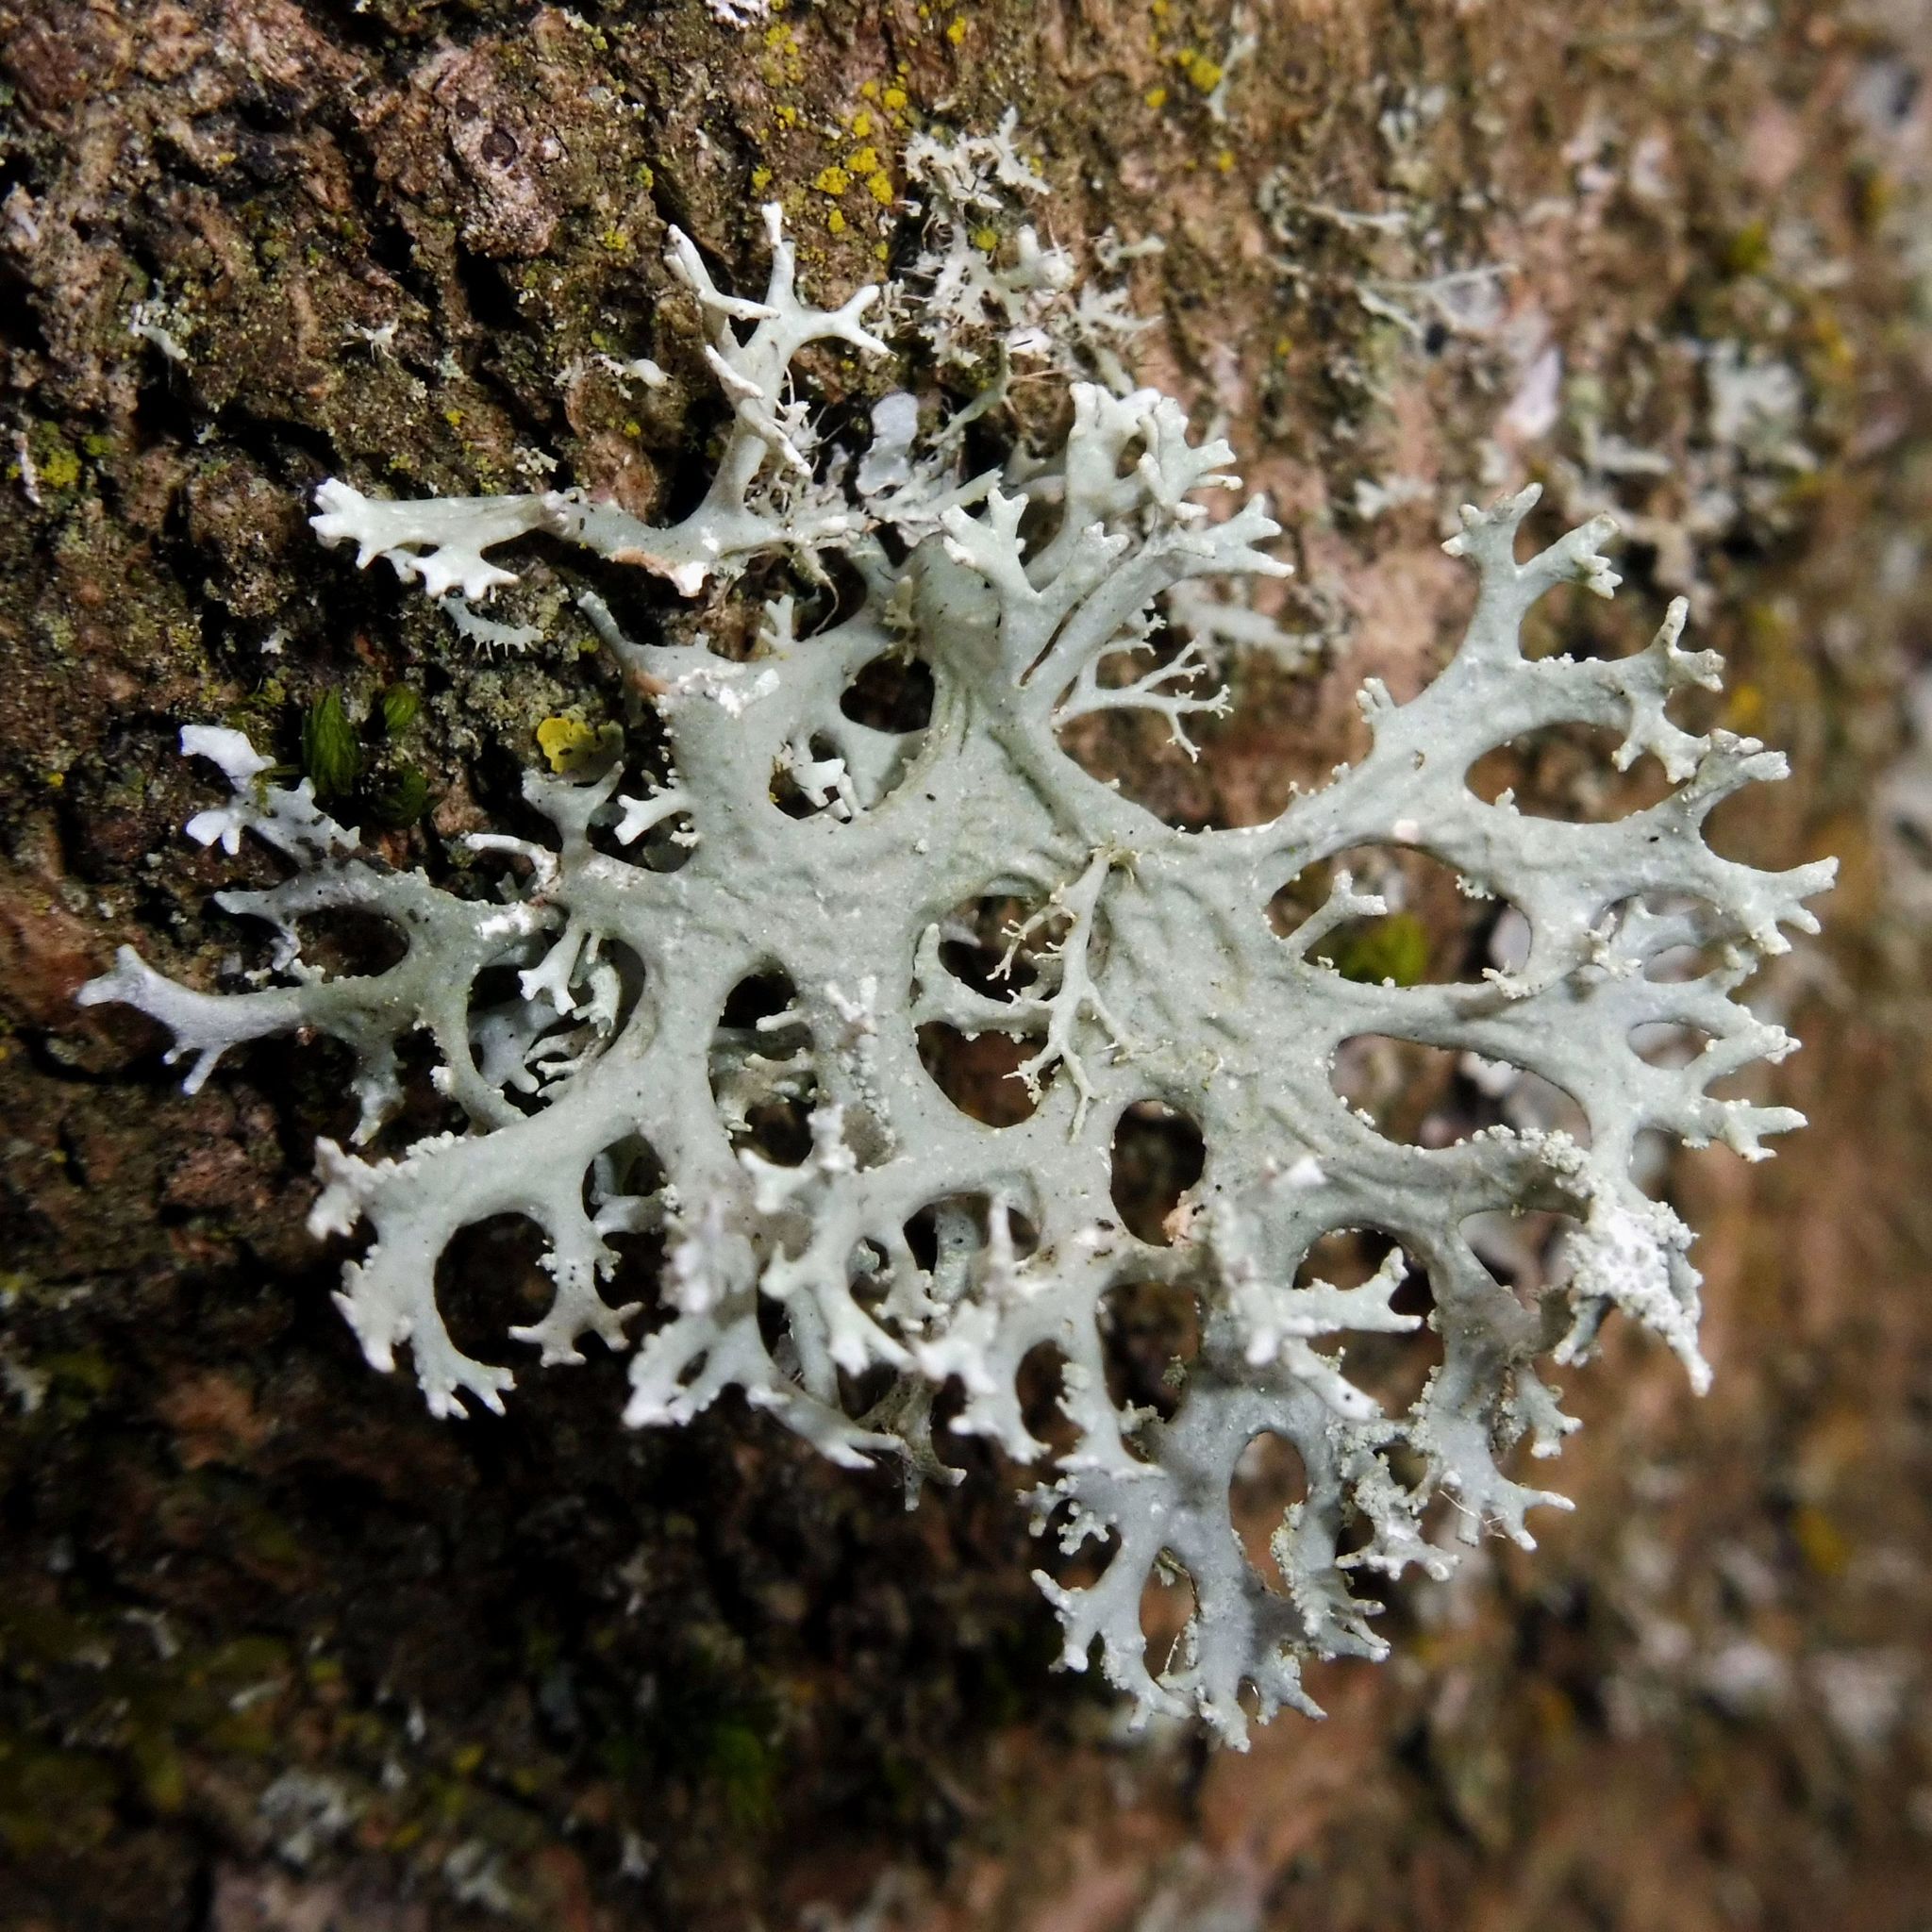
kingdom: Fungi
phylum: Ascomycota
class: Lecanoromycetes
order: Lecanorales
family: Parmeliaceae
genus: Evernia
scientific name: Evernia prunastri
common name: Oak moss
